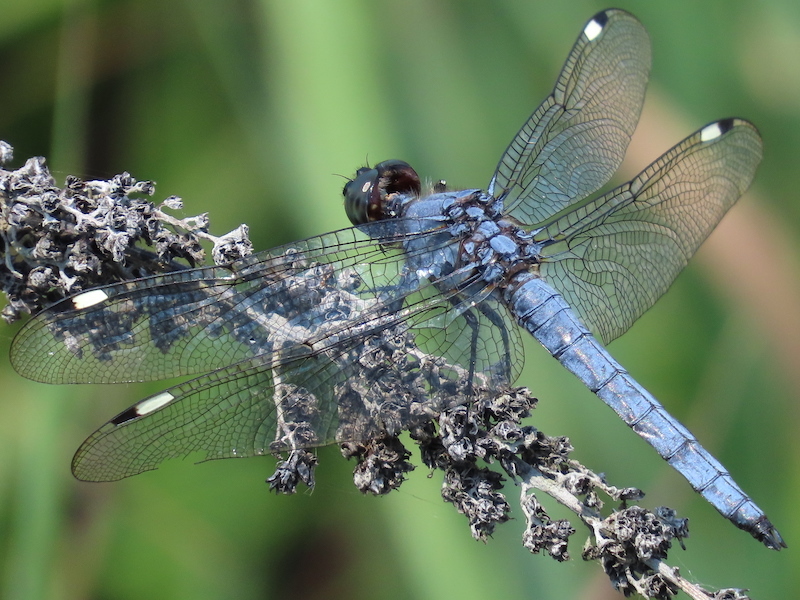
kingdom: Animalia
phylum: Arthropoda
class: Insecta
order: Odonata
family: Libellulidae
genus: Libellula
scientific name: Libellula cyanea
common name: Spangled skimmer
